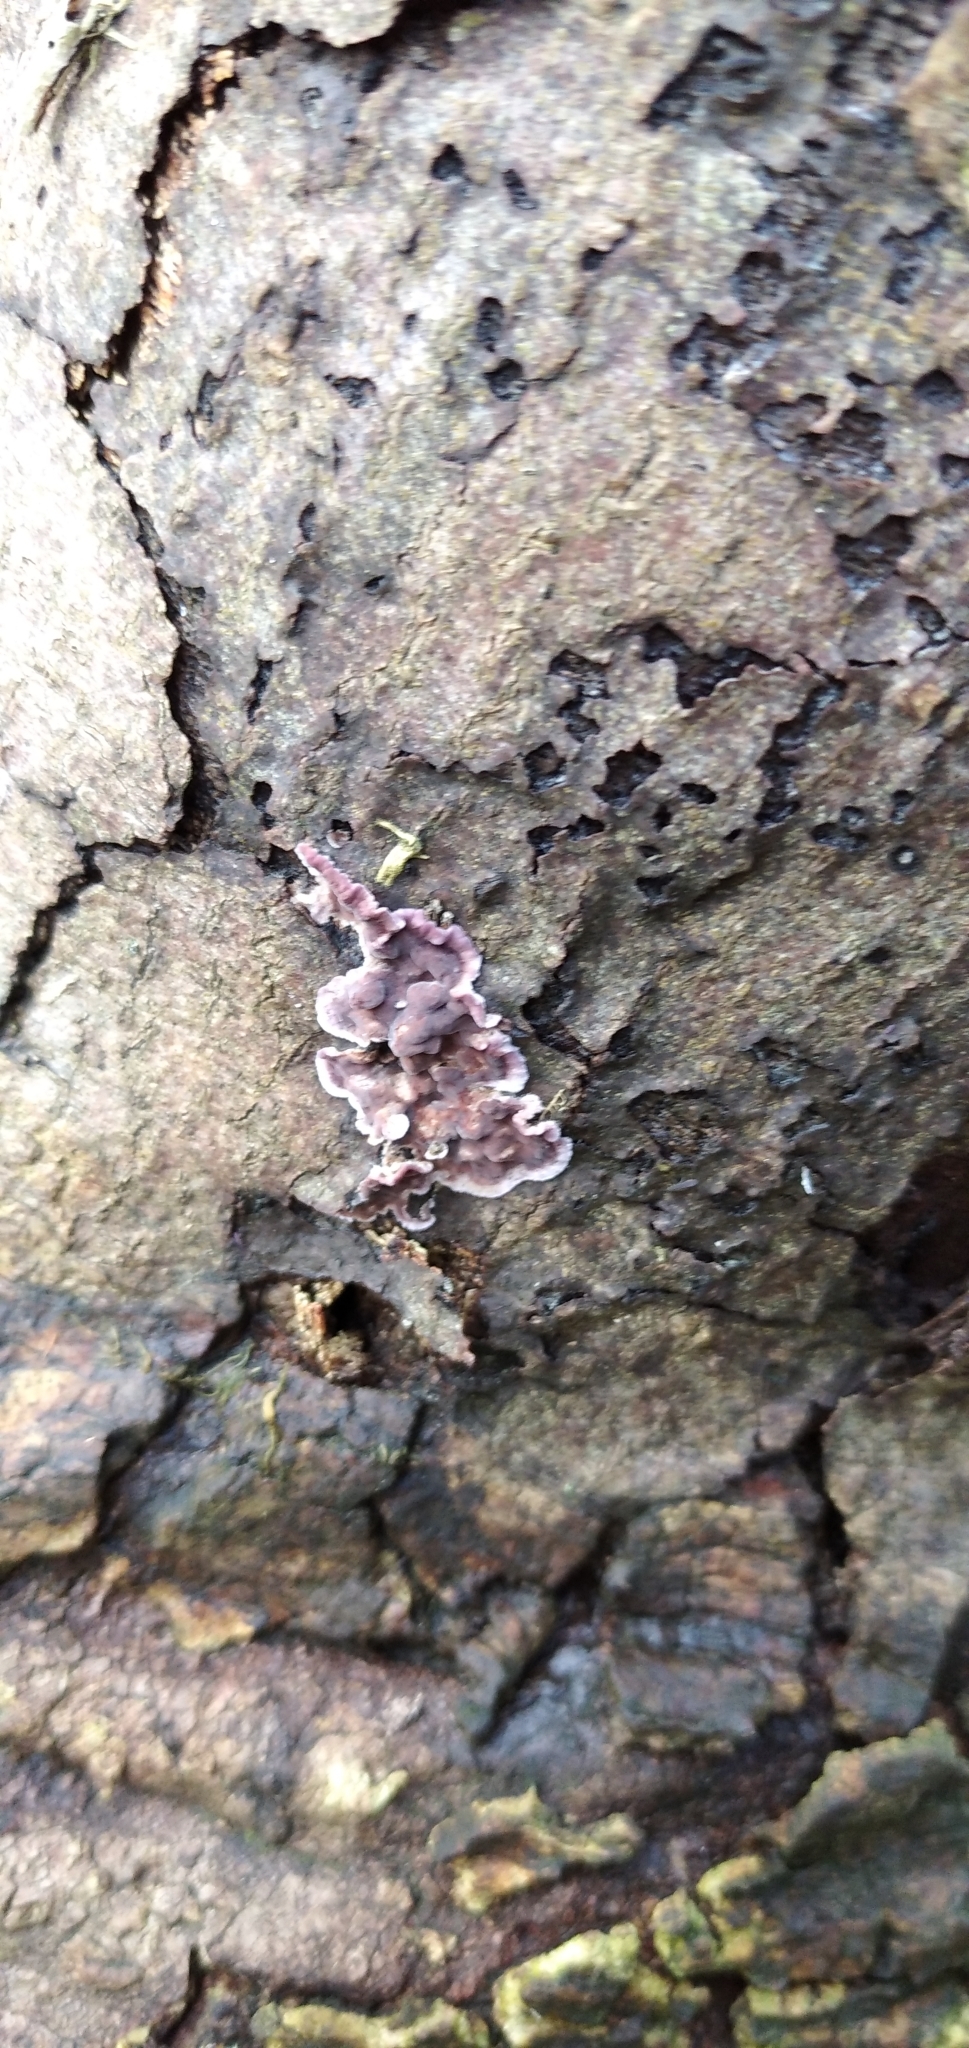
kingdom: Fungi
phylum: Basidiomycota
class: Agaricomycetes
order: Agaricales
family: Cyphellaceae
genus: Chondrostereum
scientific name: Chondrostereum purpureum
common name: Silver leaf disease
